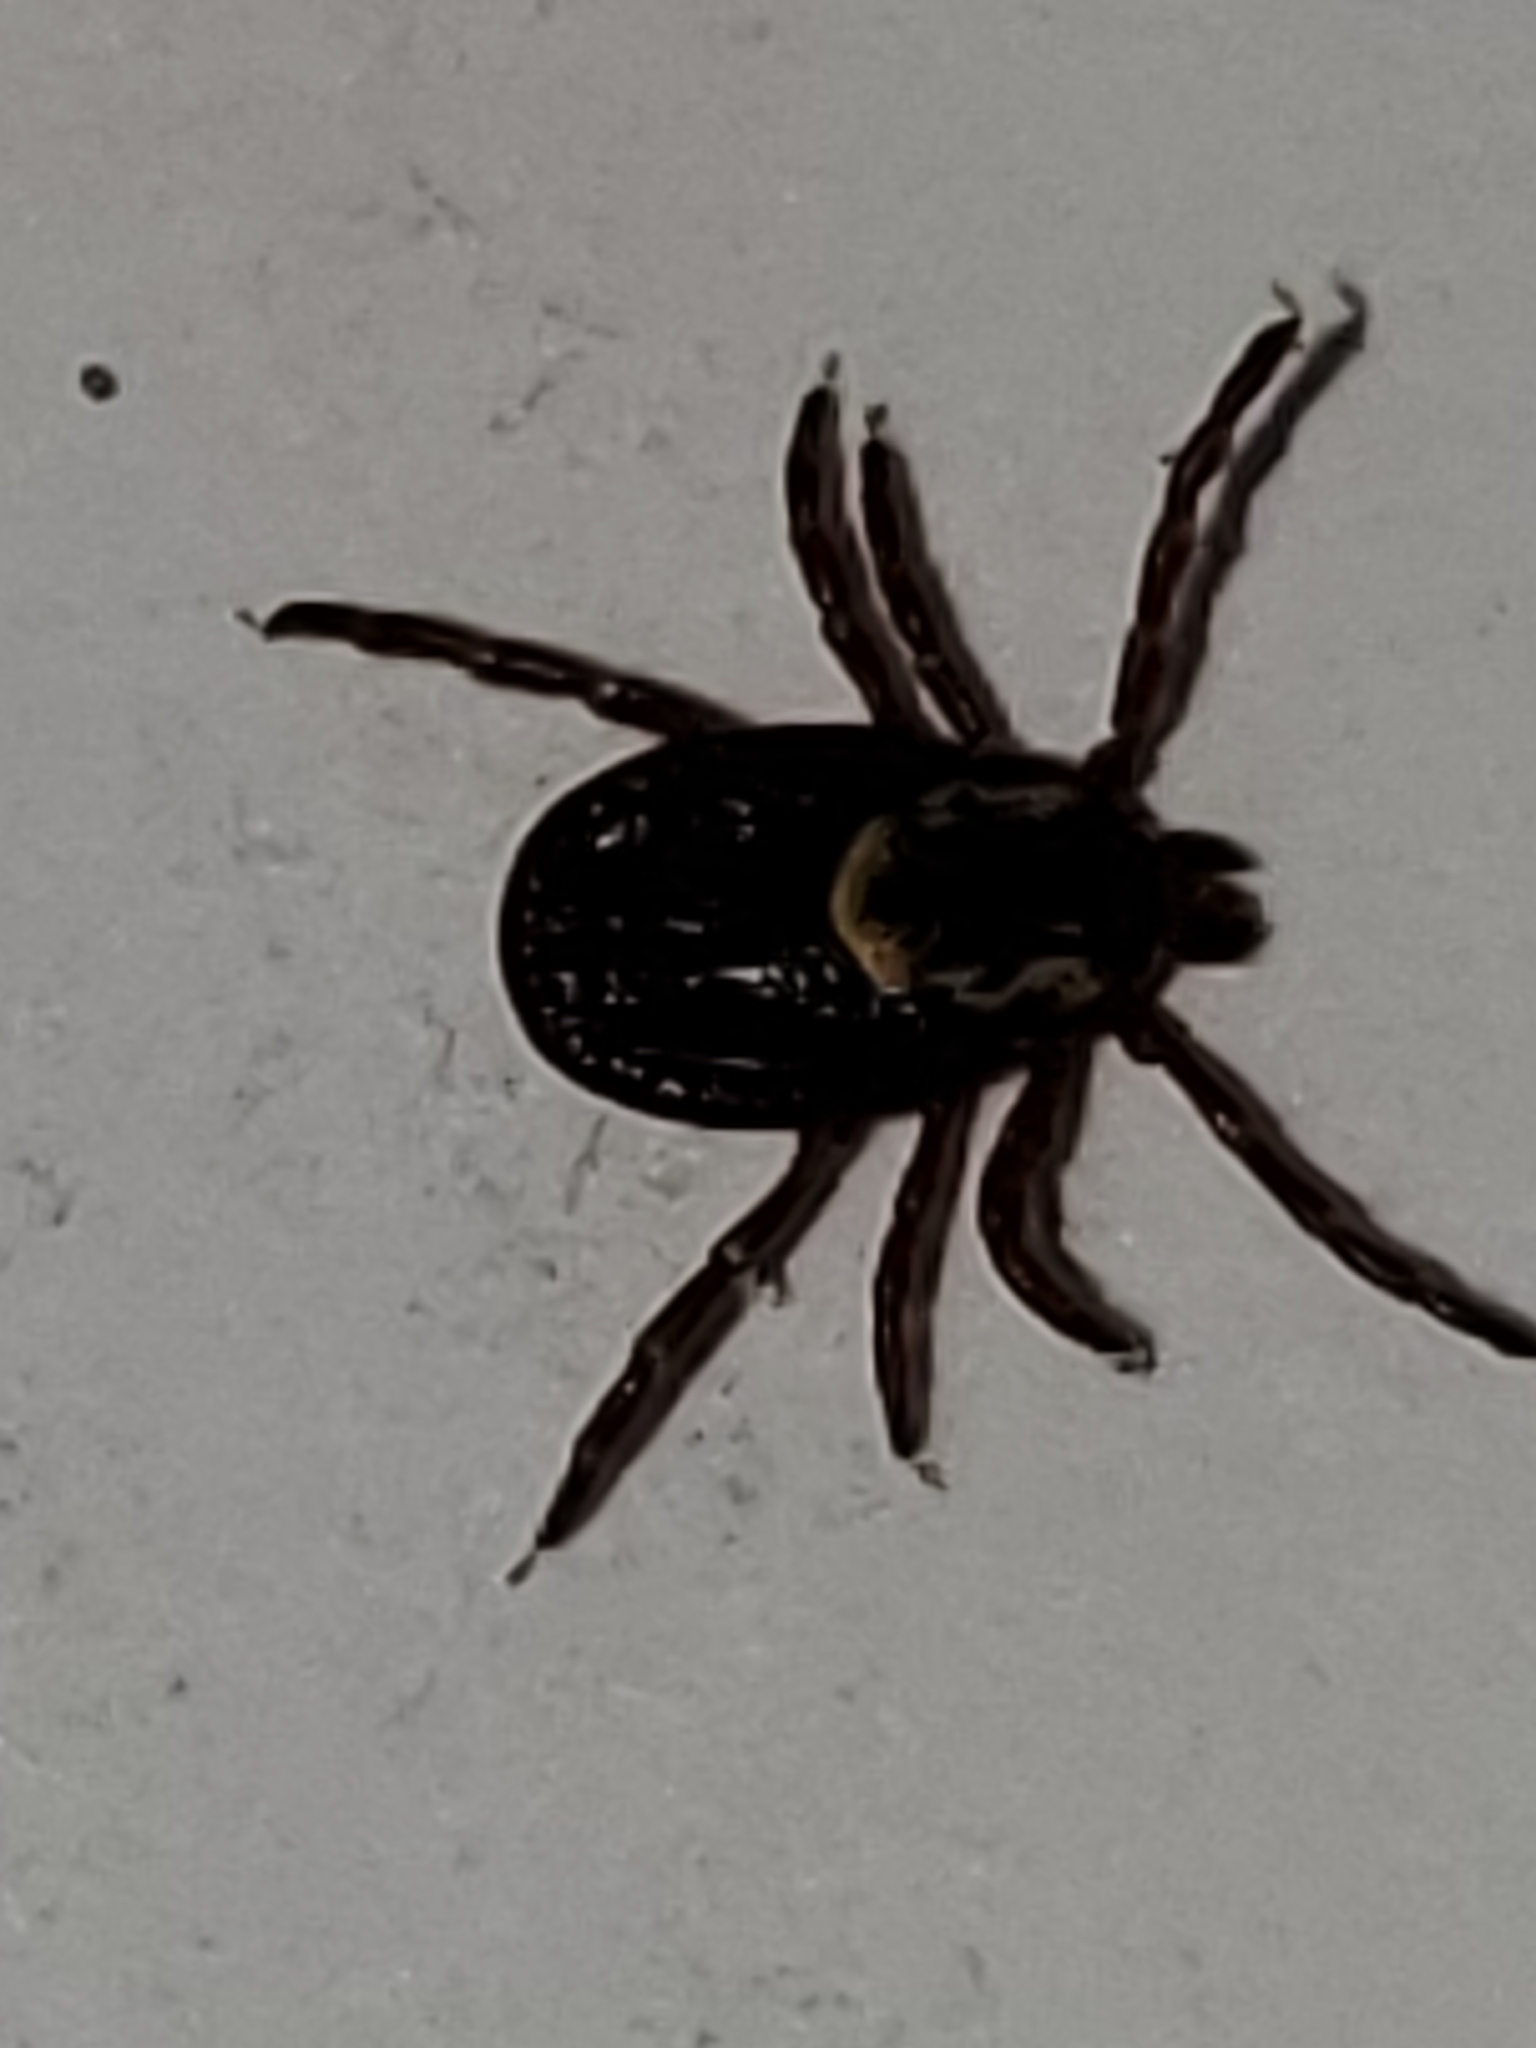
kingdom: Animalia
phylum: Arthropoda
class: Arachnida
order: Ixodida
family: Ixodidae
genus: Dermacentor
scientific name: Dermacentor variabilis
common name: American dog tick
